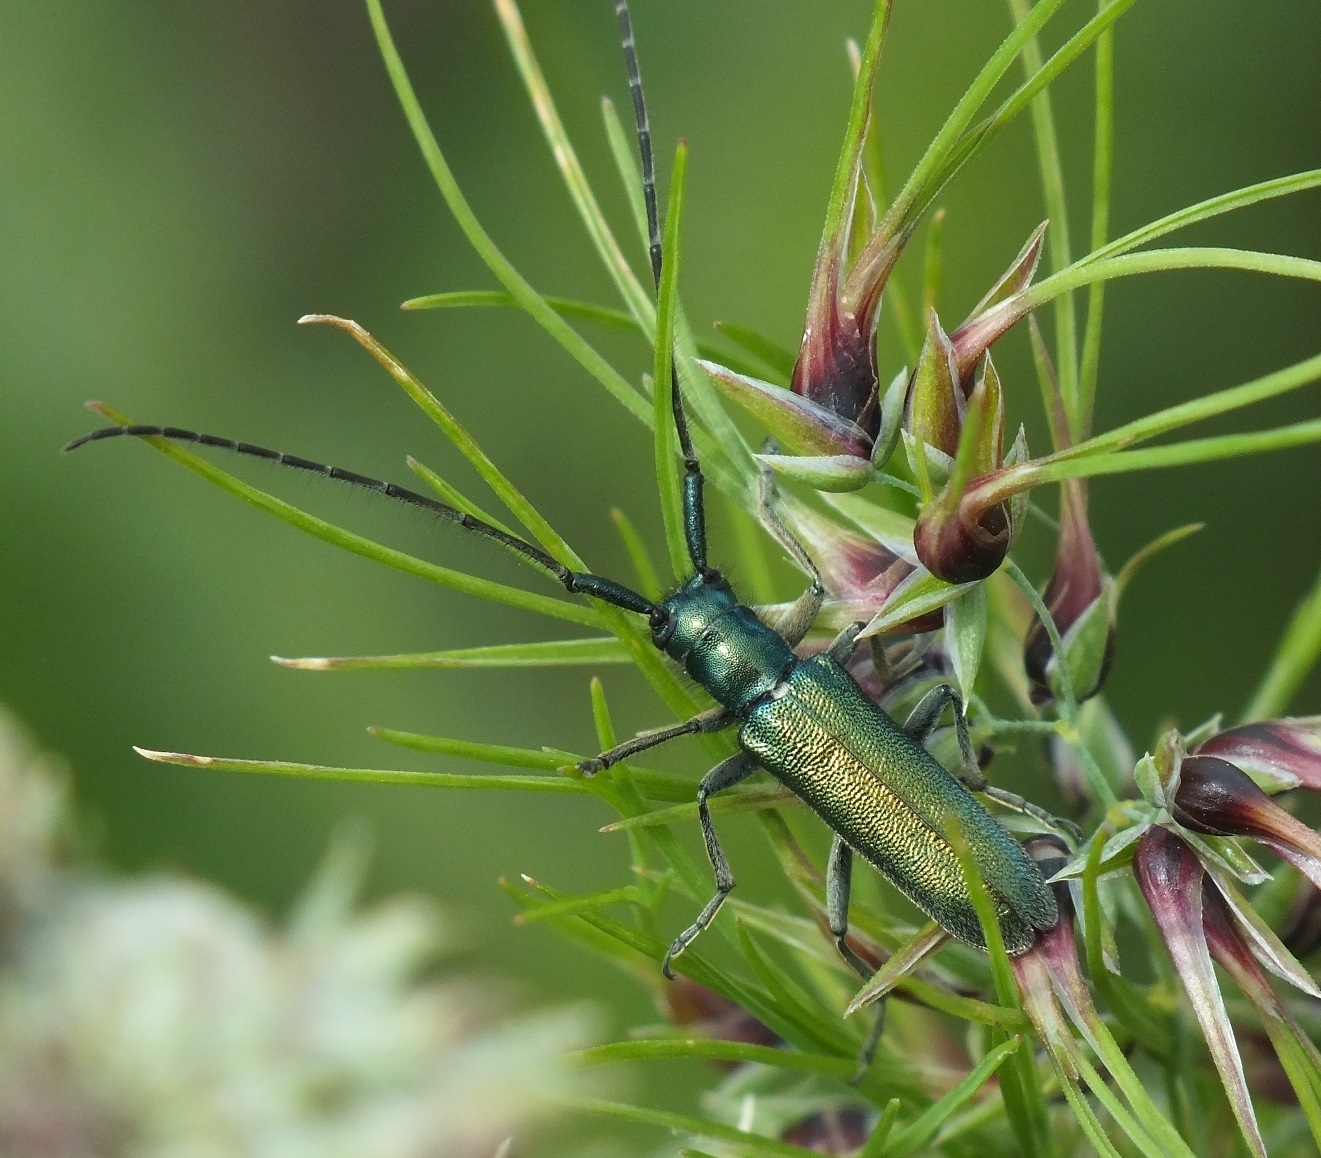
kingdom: Animalia
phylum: Arthropoda
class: Insecta
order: Coleoptera
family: Cerambycidae
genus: Agapanthia
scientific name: Agapanthia violacea
